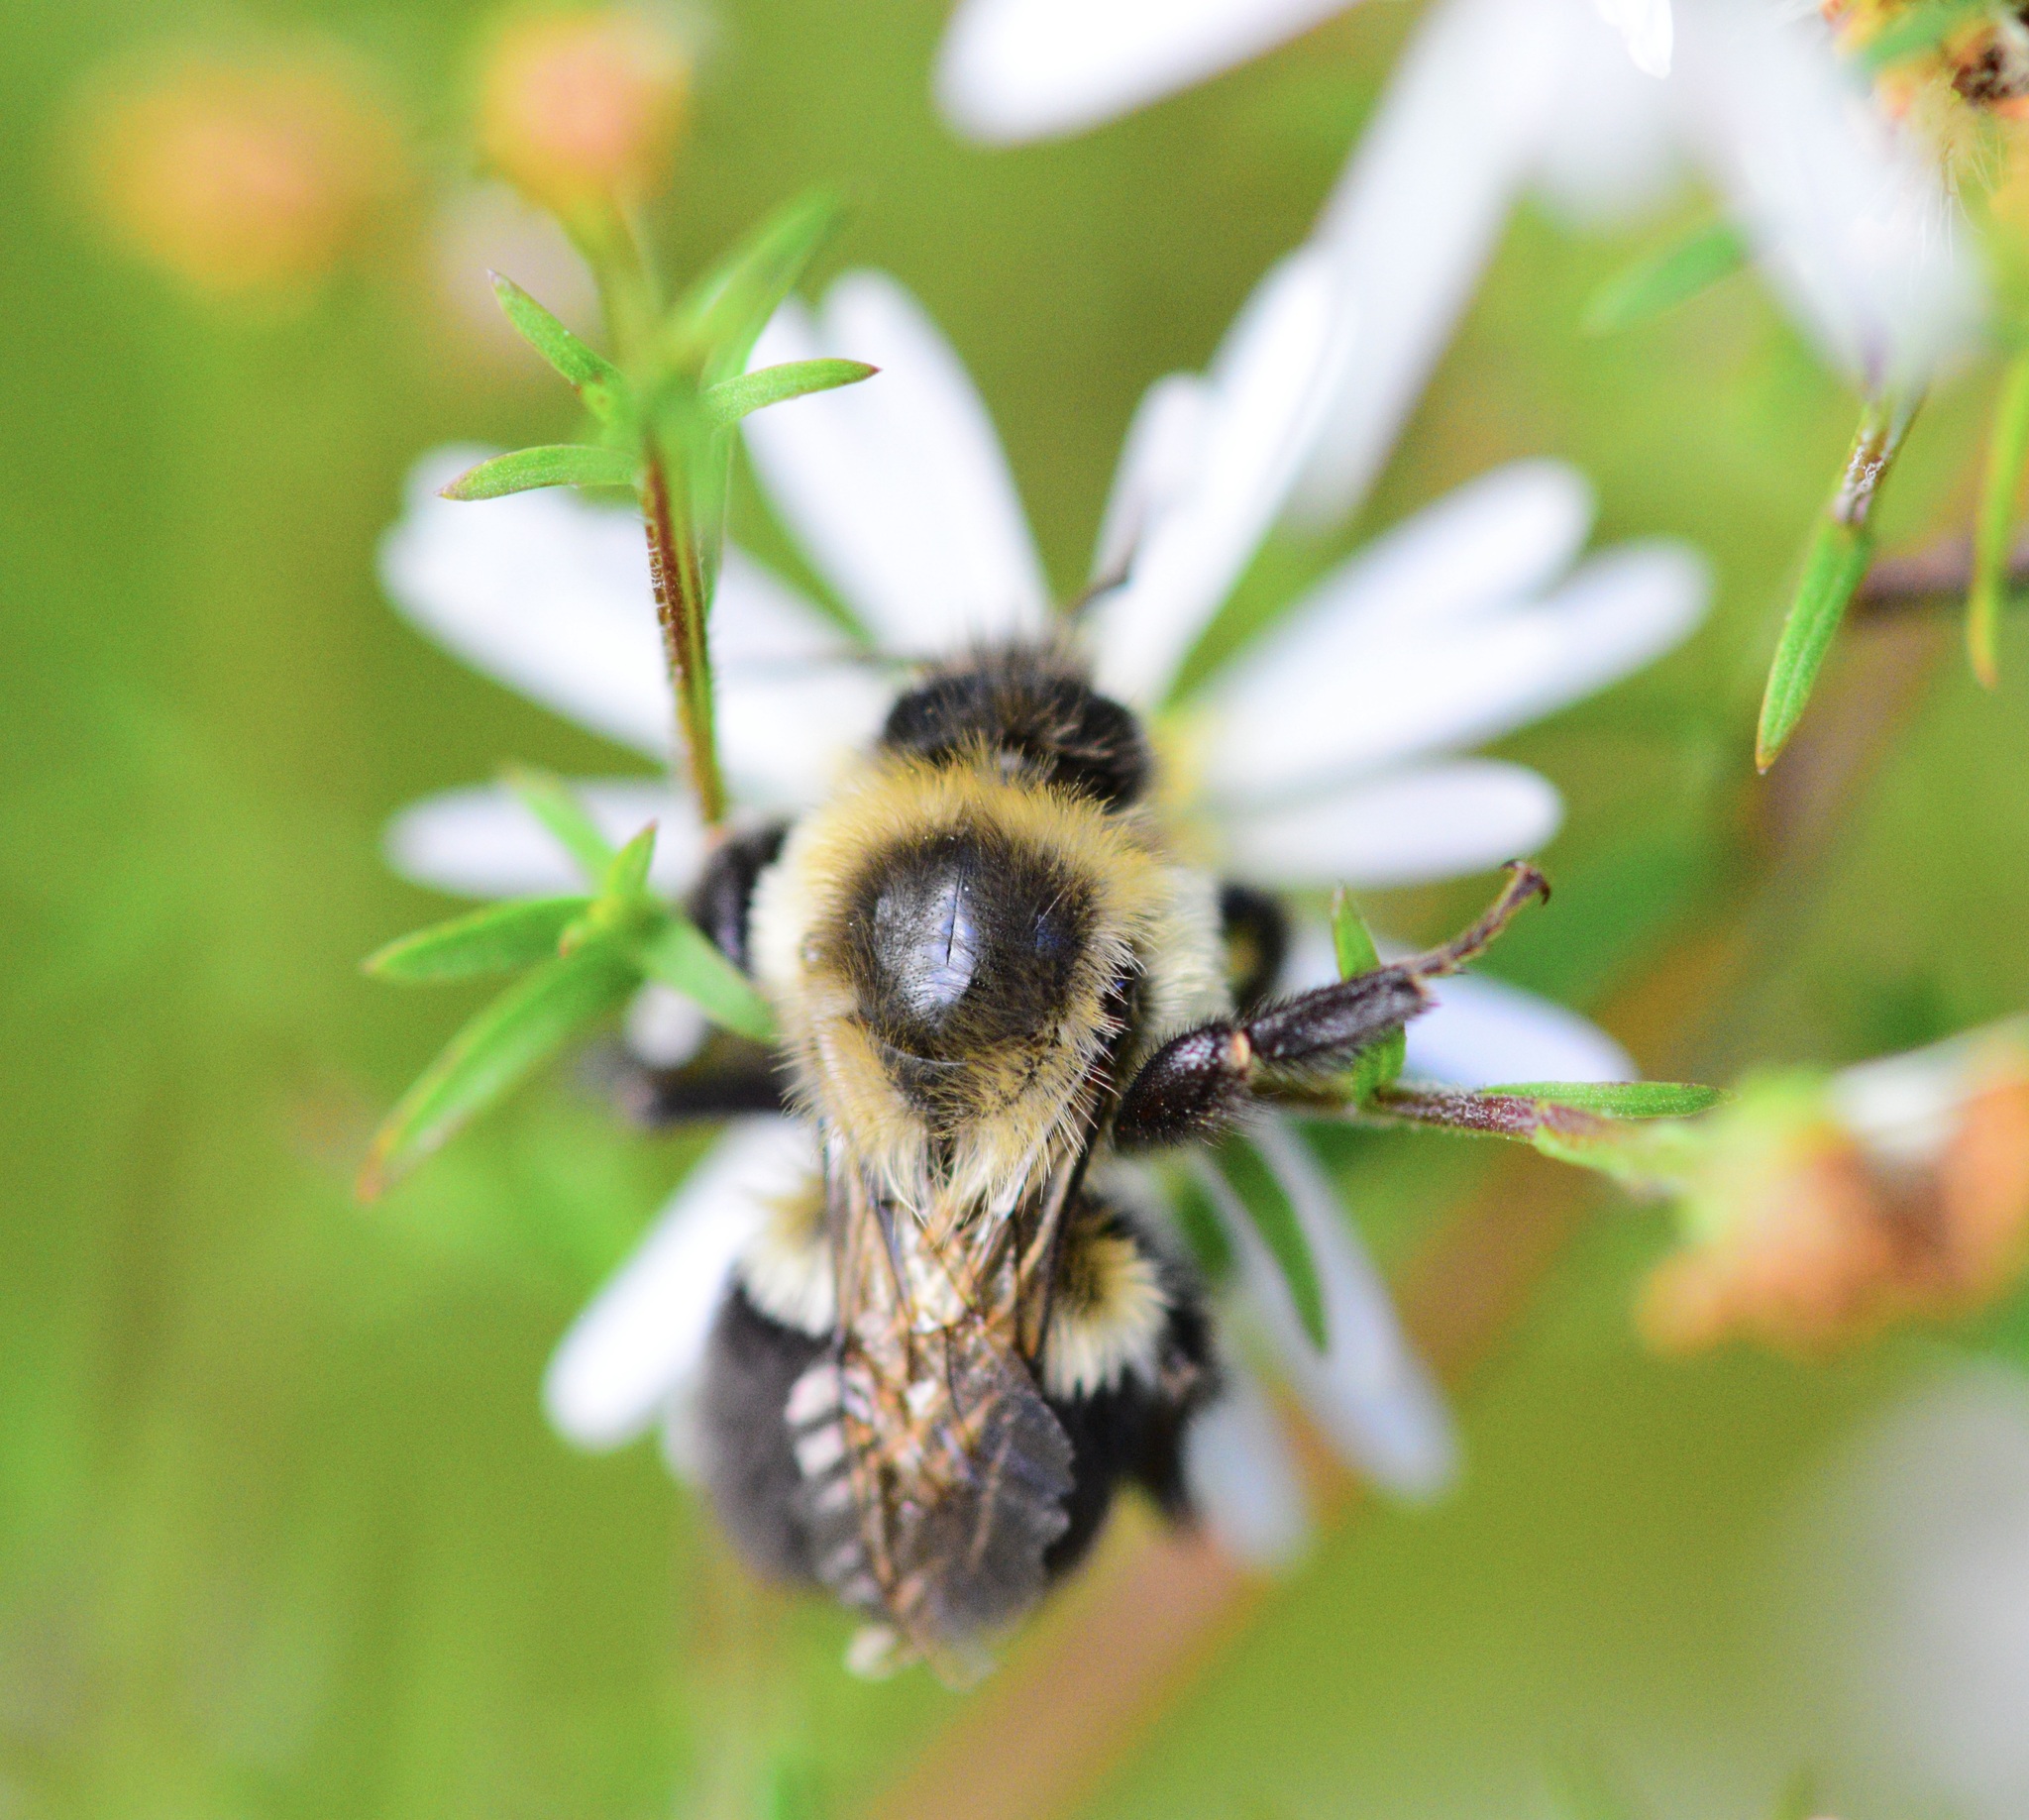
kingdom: Animalia
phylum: Arthropoda
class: Insecta
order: Hymenoptera
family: Apidae
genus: Bombus
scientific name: Bombus impatiens
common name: Common eastern bumble bee
